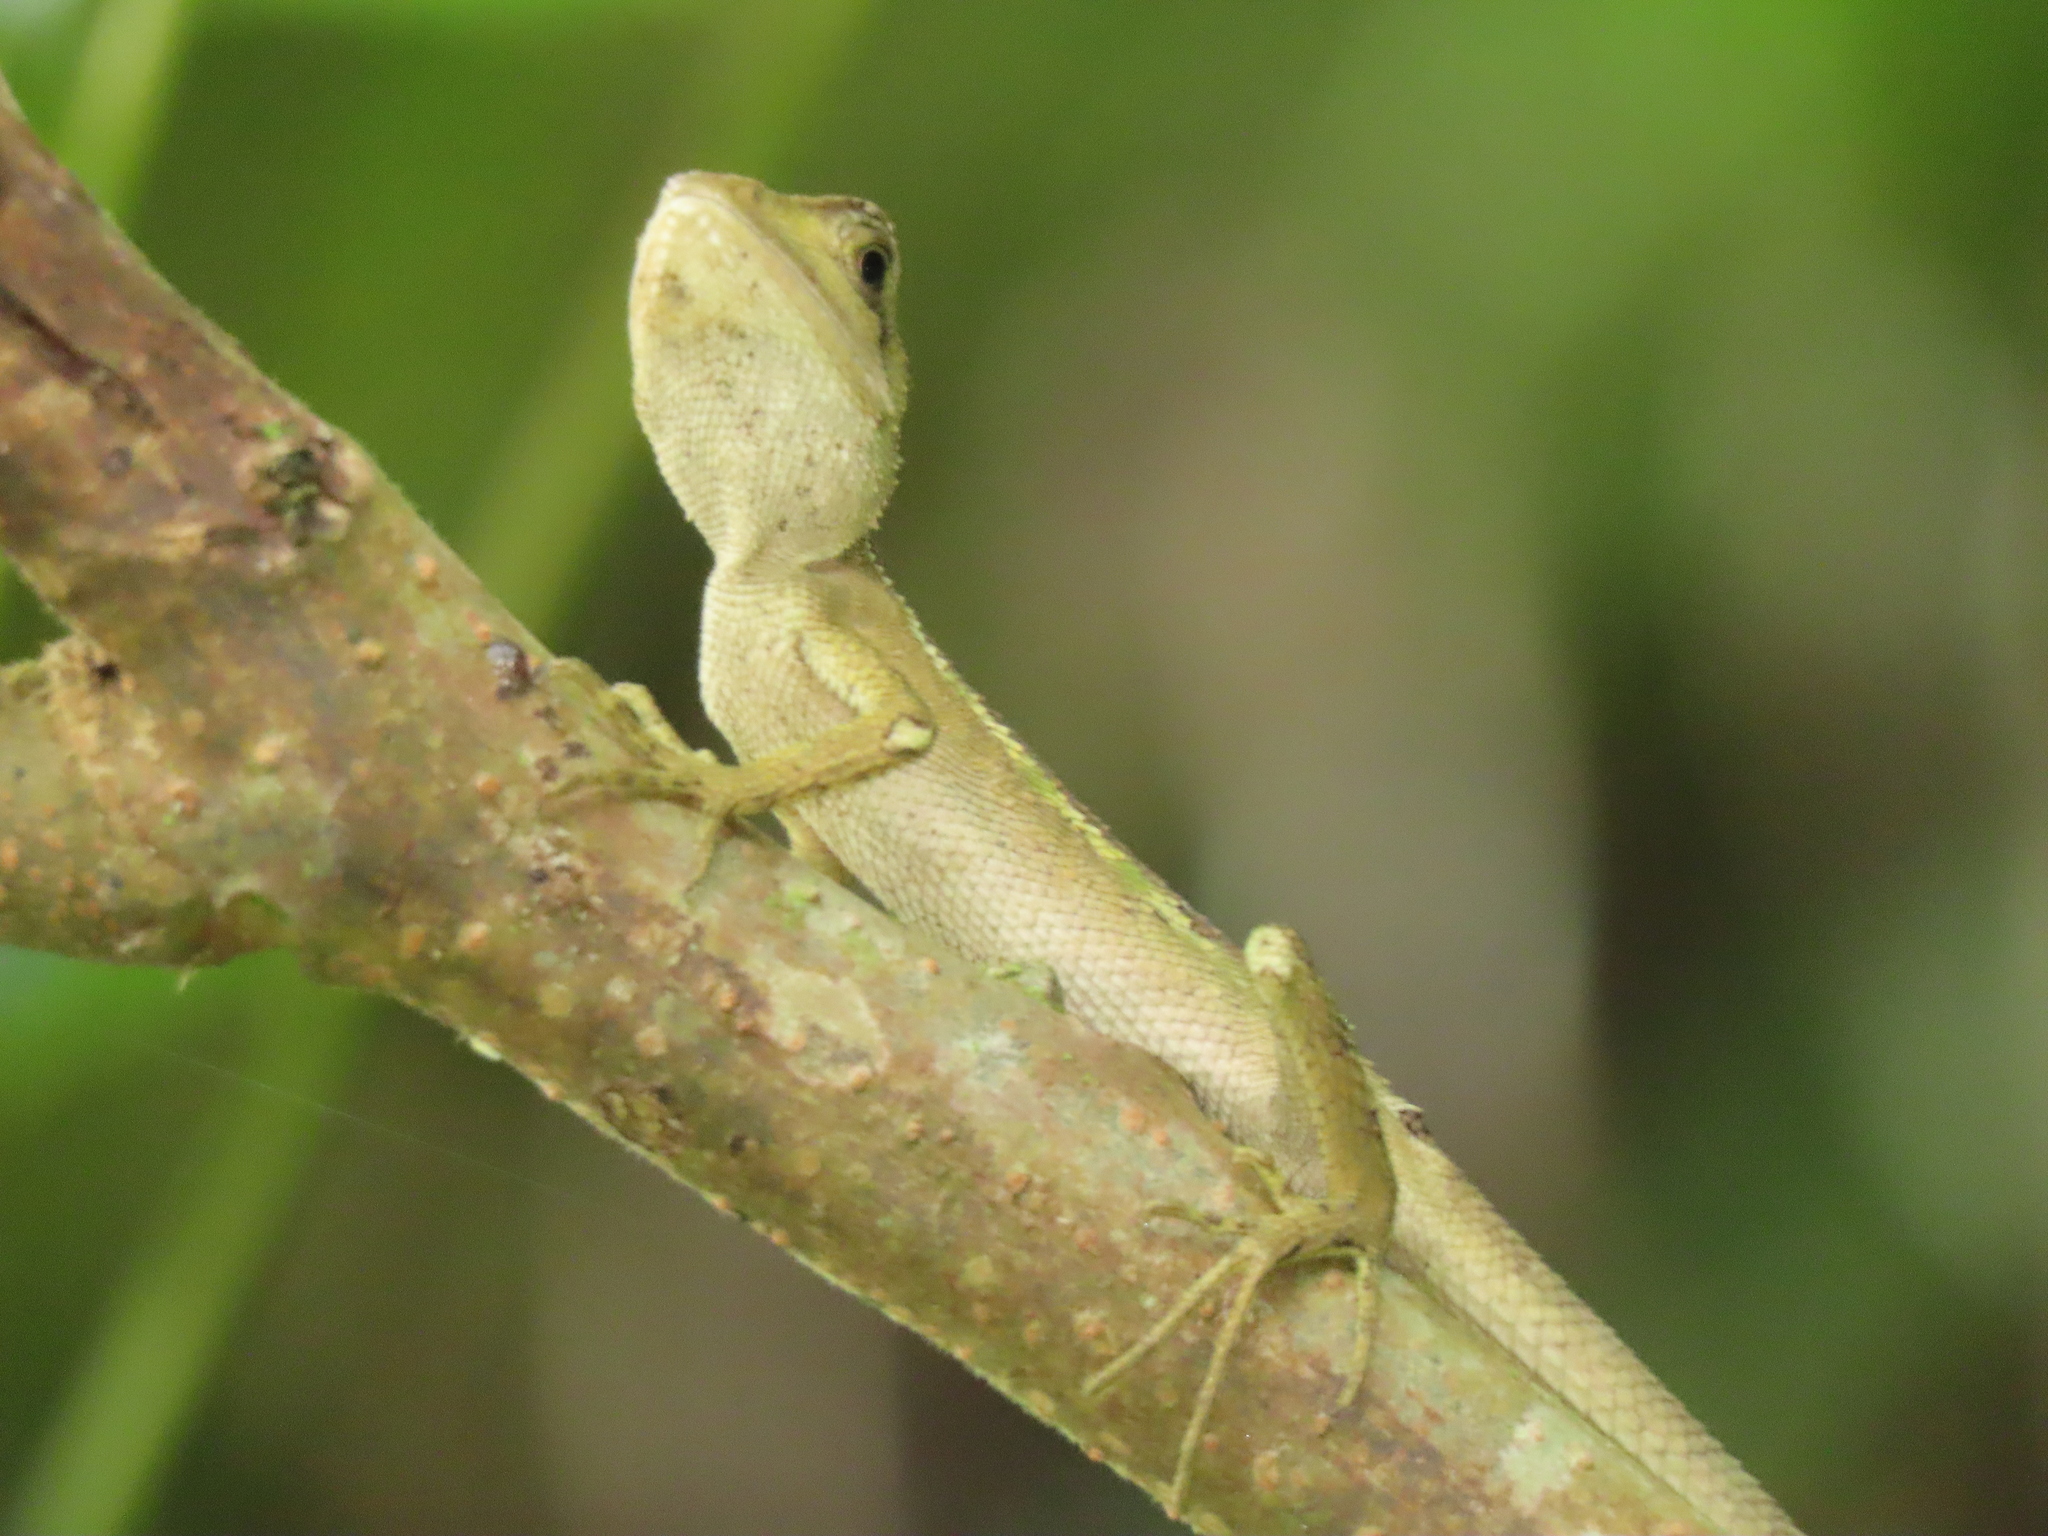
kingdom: Animalia
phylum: Chordata
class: Squamata
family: Agamidae
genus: Diploderma
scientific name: Diploderma swinhonis
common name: Taiwan japalure
